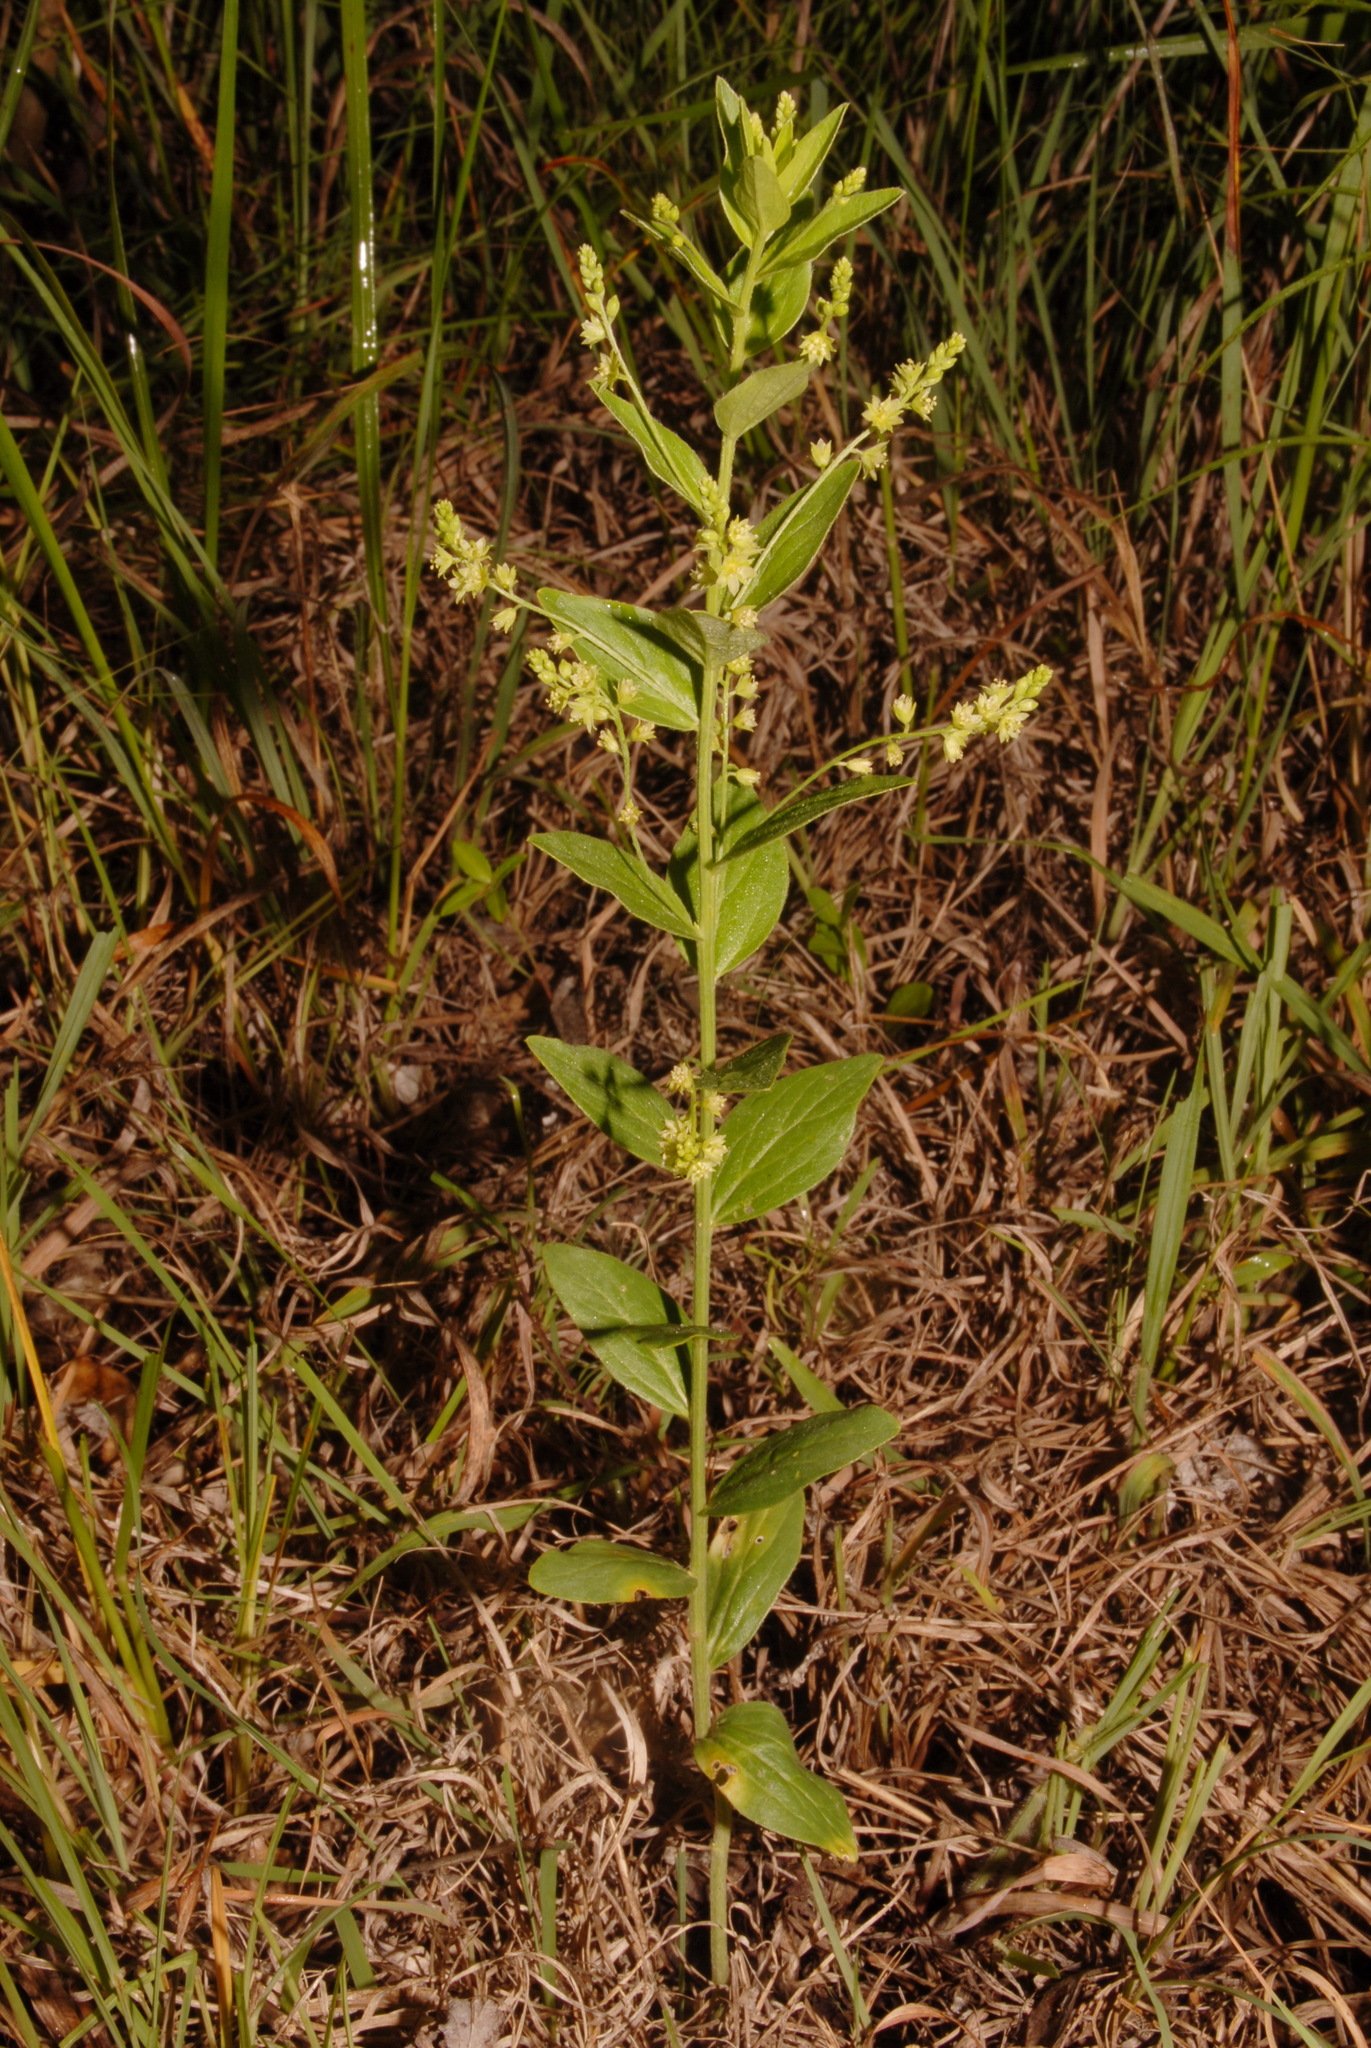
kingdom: Plantae
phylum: Tracheophyta
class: Magnoliopsida
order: Malpighiales
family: Euphorbiaceae
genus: Ditaxis
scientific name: Ditaxis mercurialina
